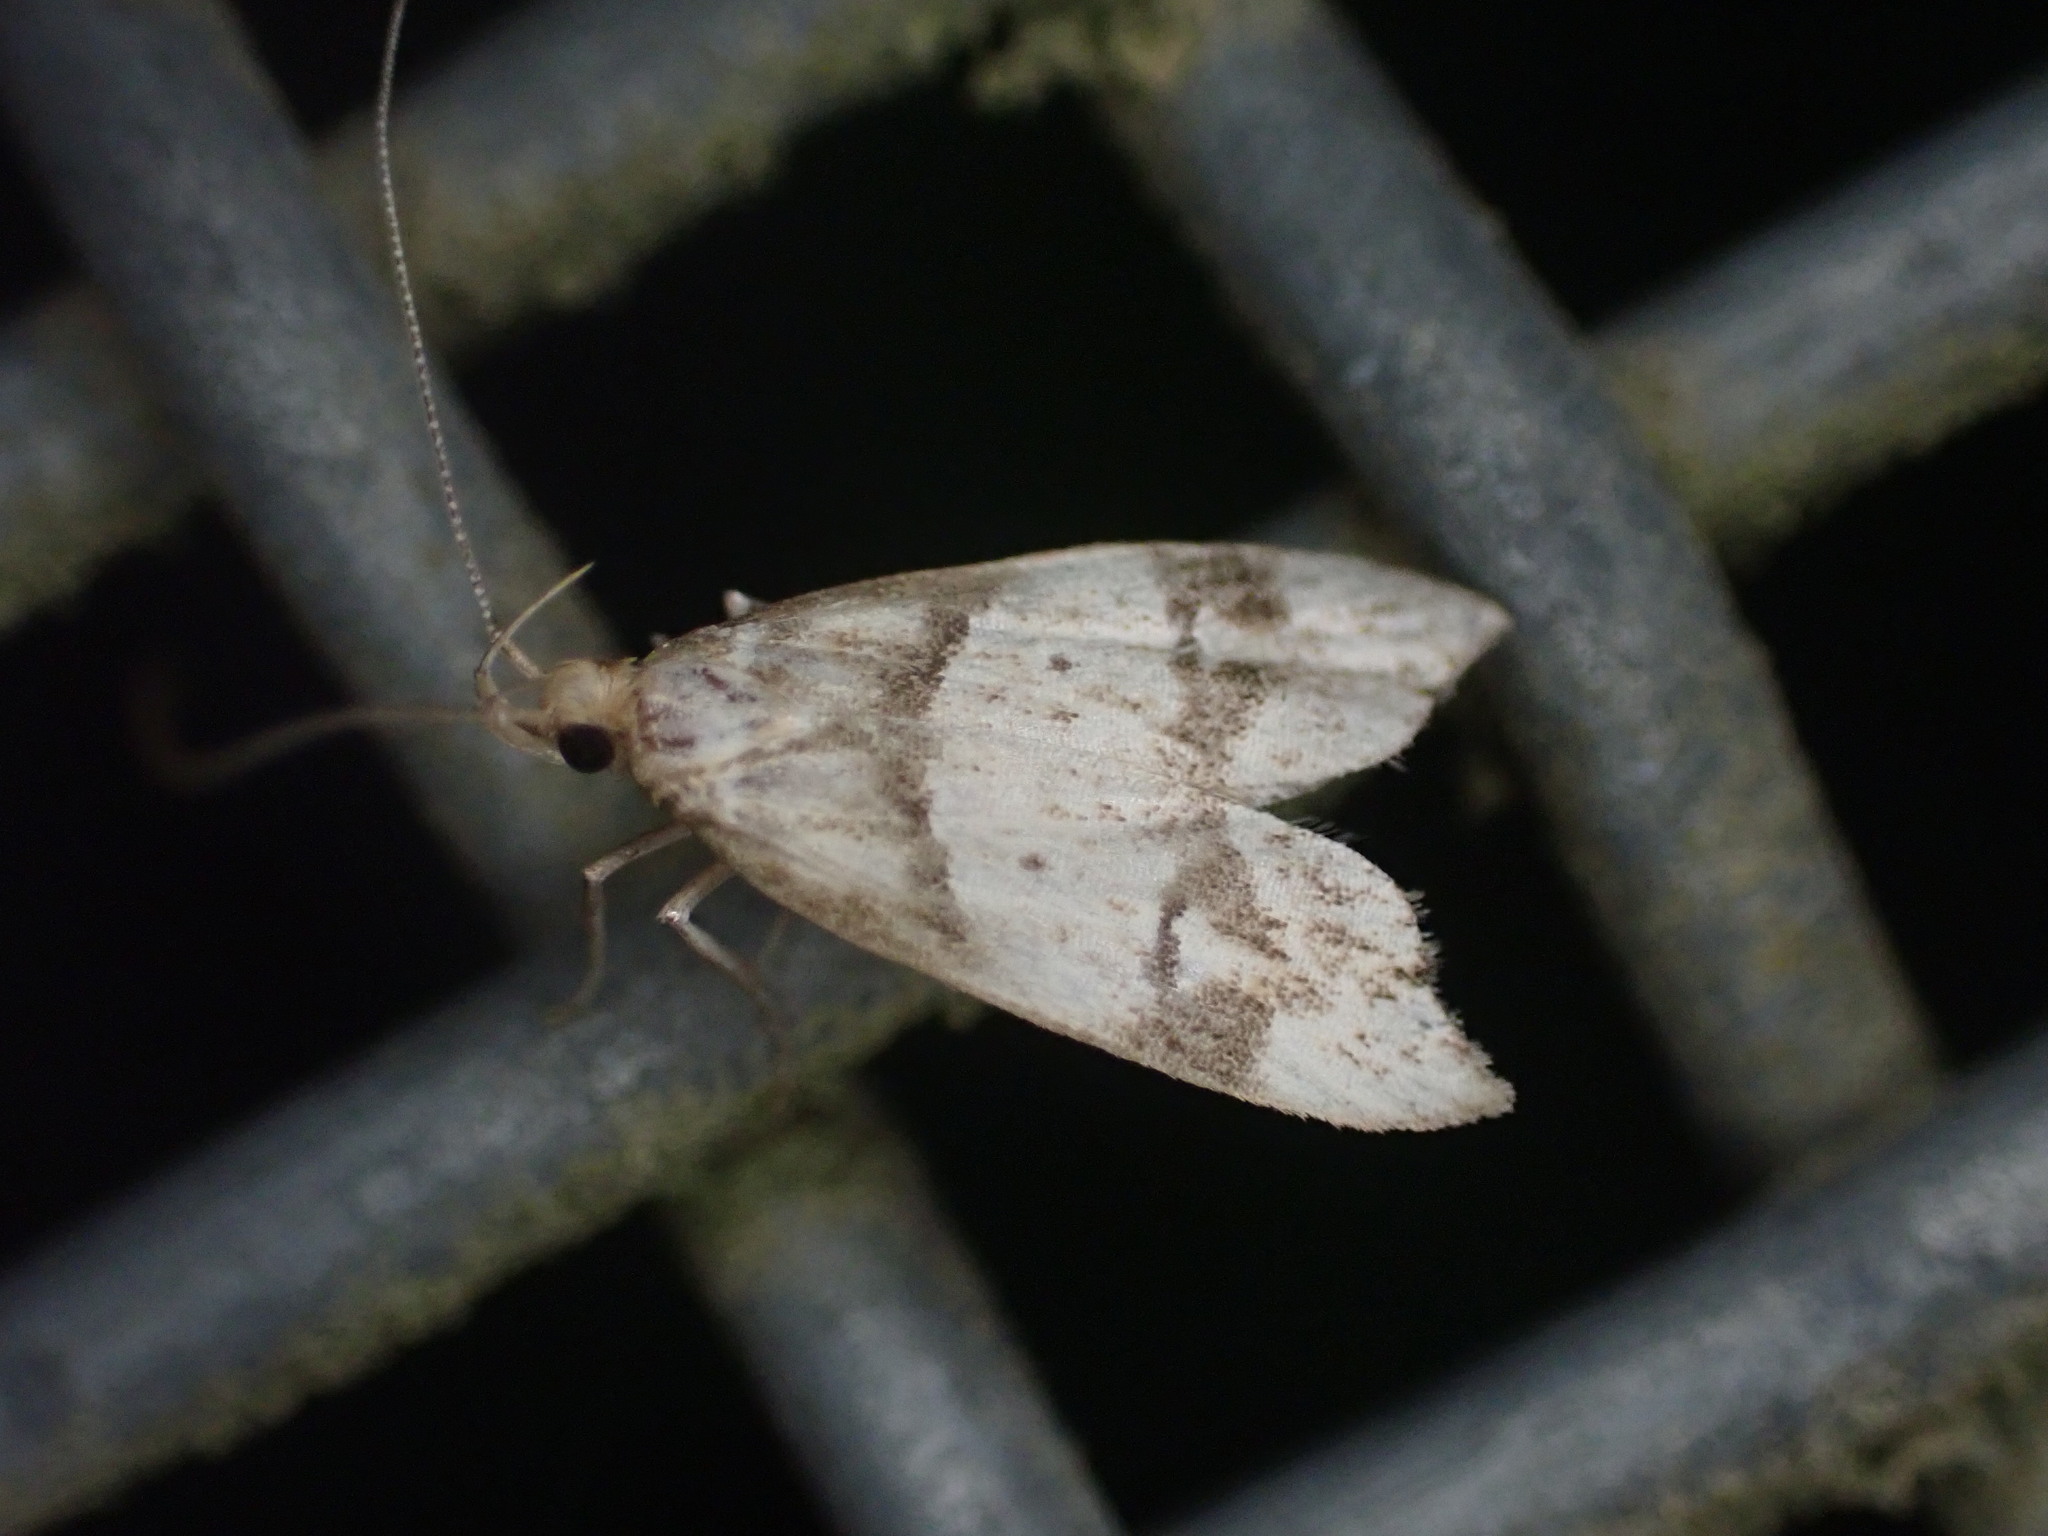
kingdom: Animalia
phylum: Arthropoda
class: Insecta
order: Lepidoptera
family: Oecophoridae
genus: Gymnobathra
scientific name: Gymnobathra hamatella
